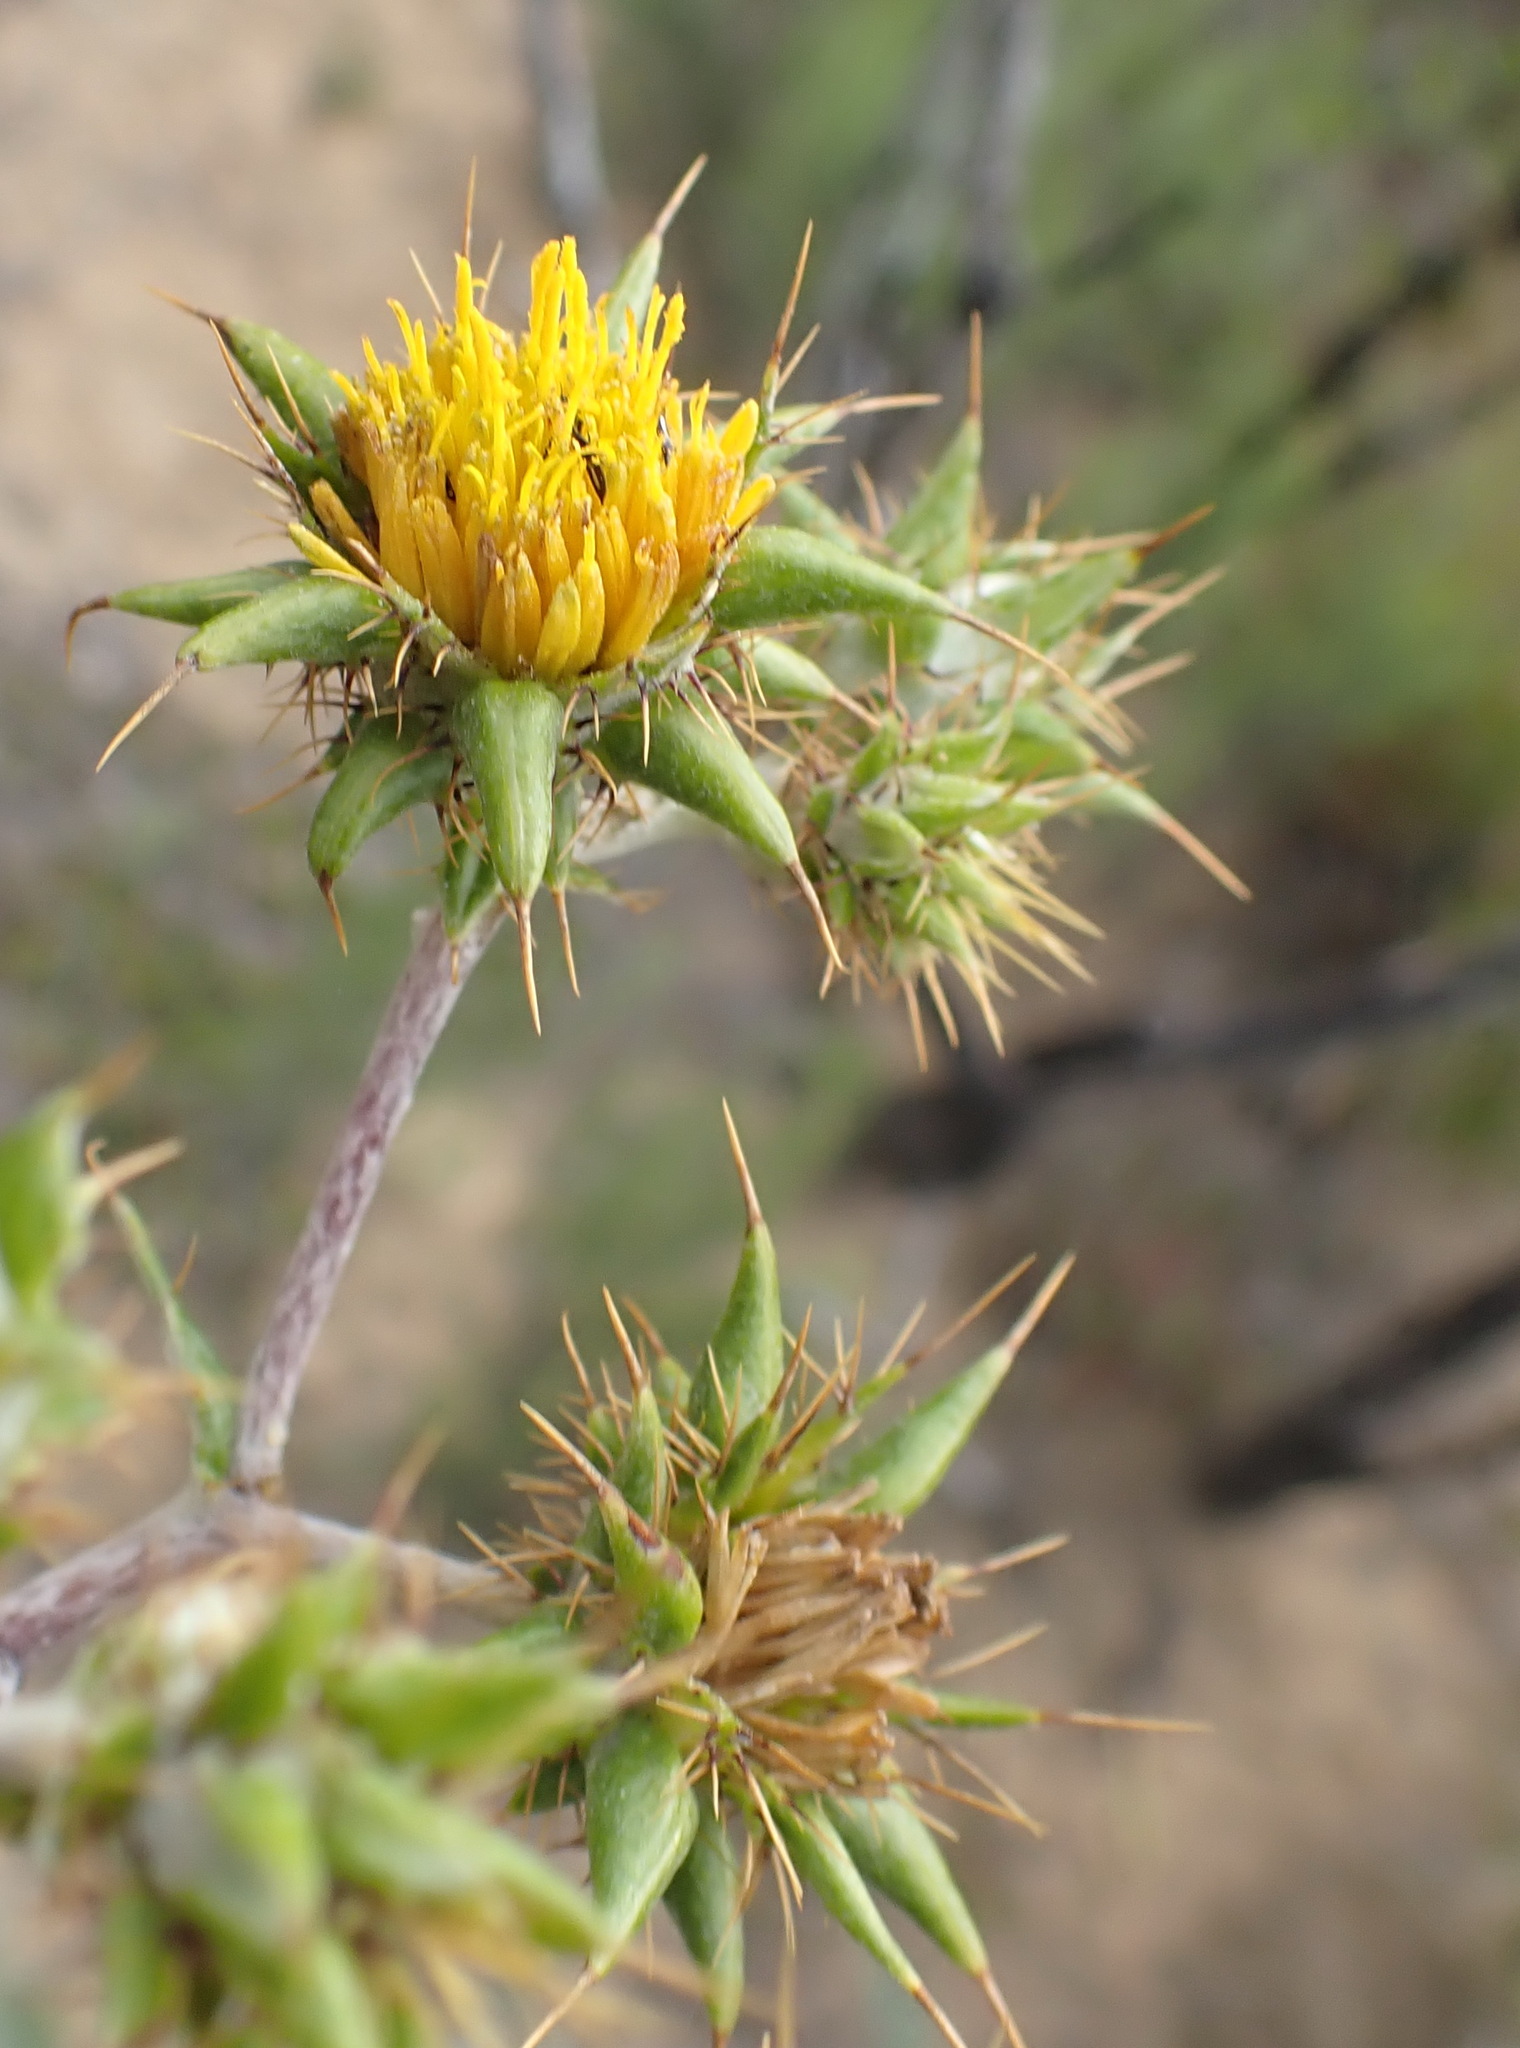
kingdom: Plantae
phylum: Tracheophyta
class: Magnoliopsida
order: Asterales
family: Asteraceae
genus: Berkheya
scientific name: Berkheya rigida
